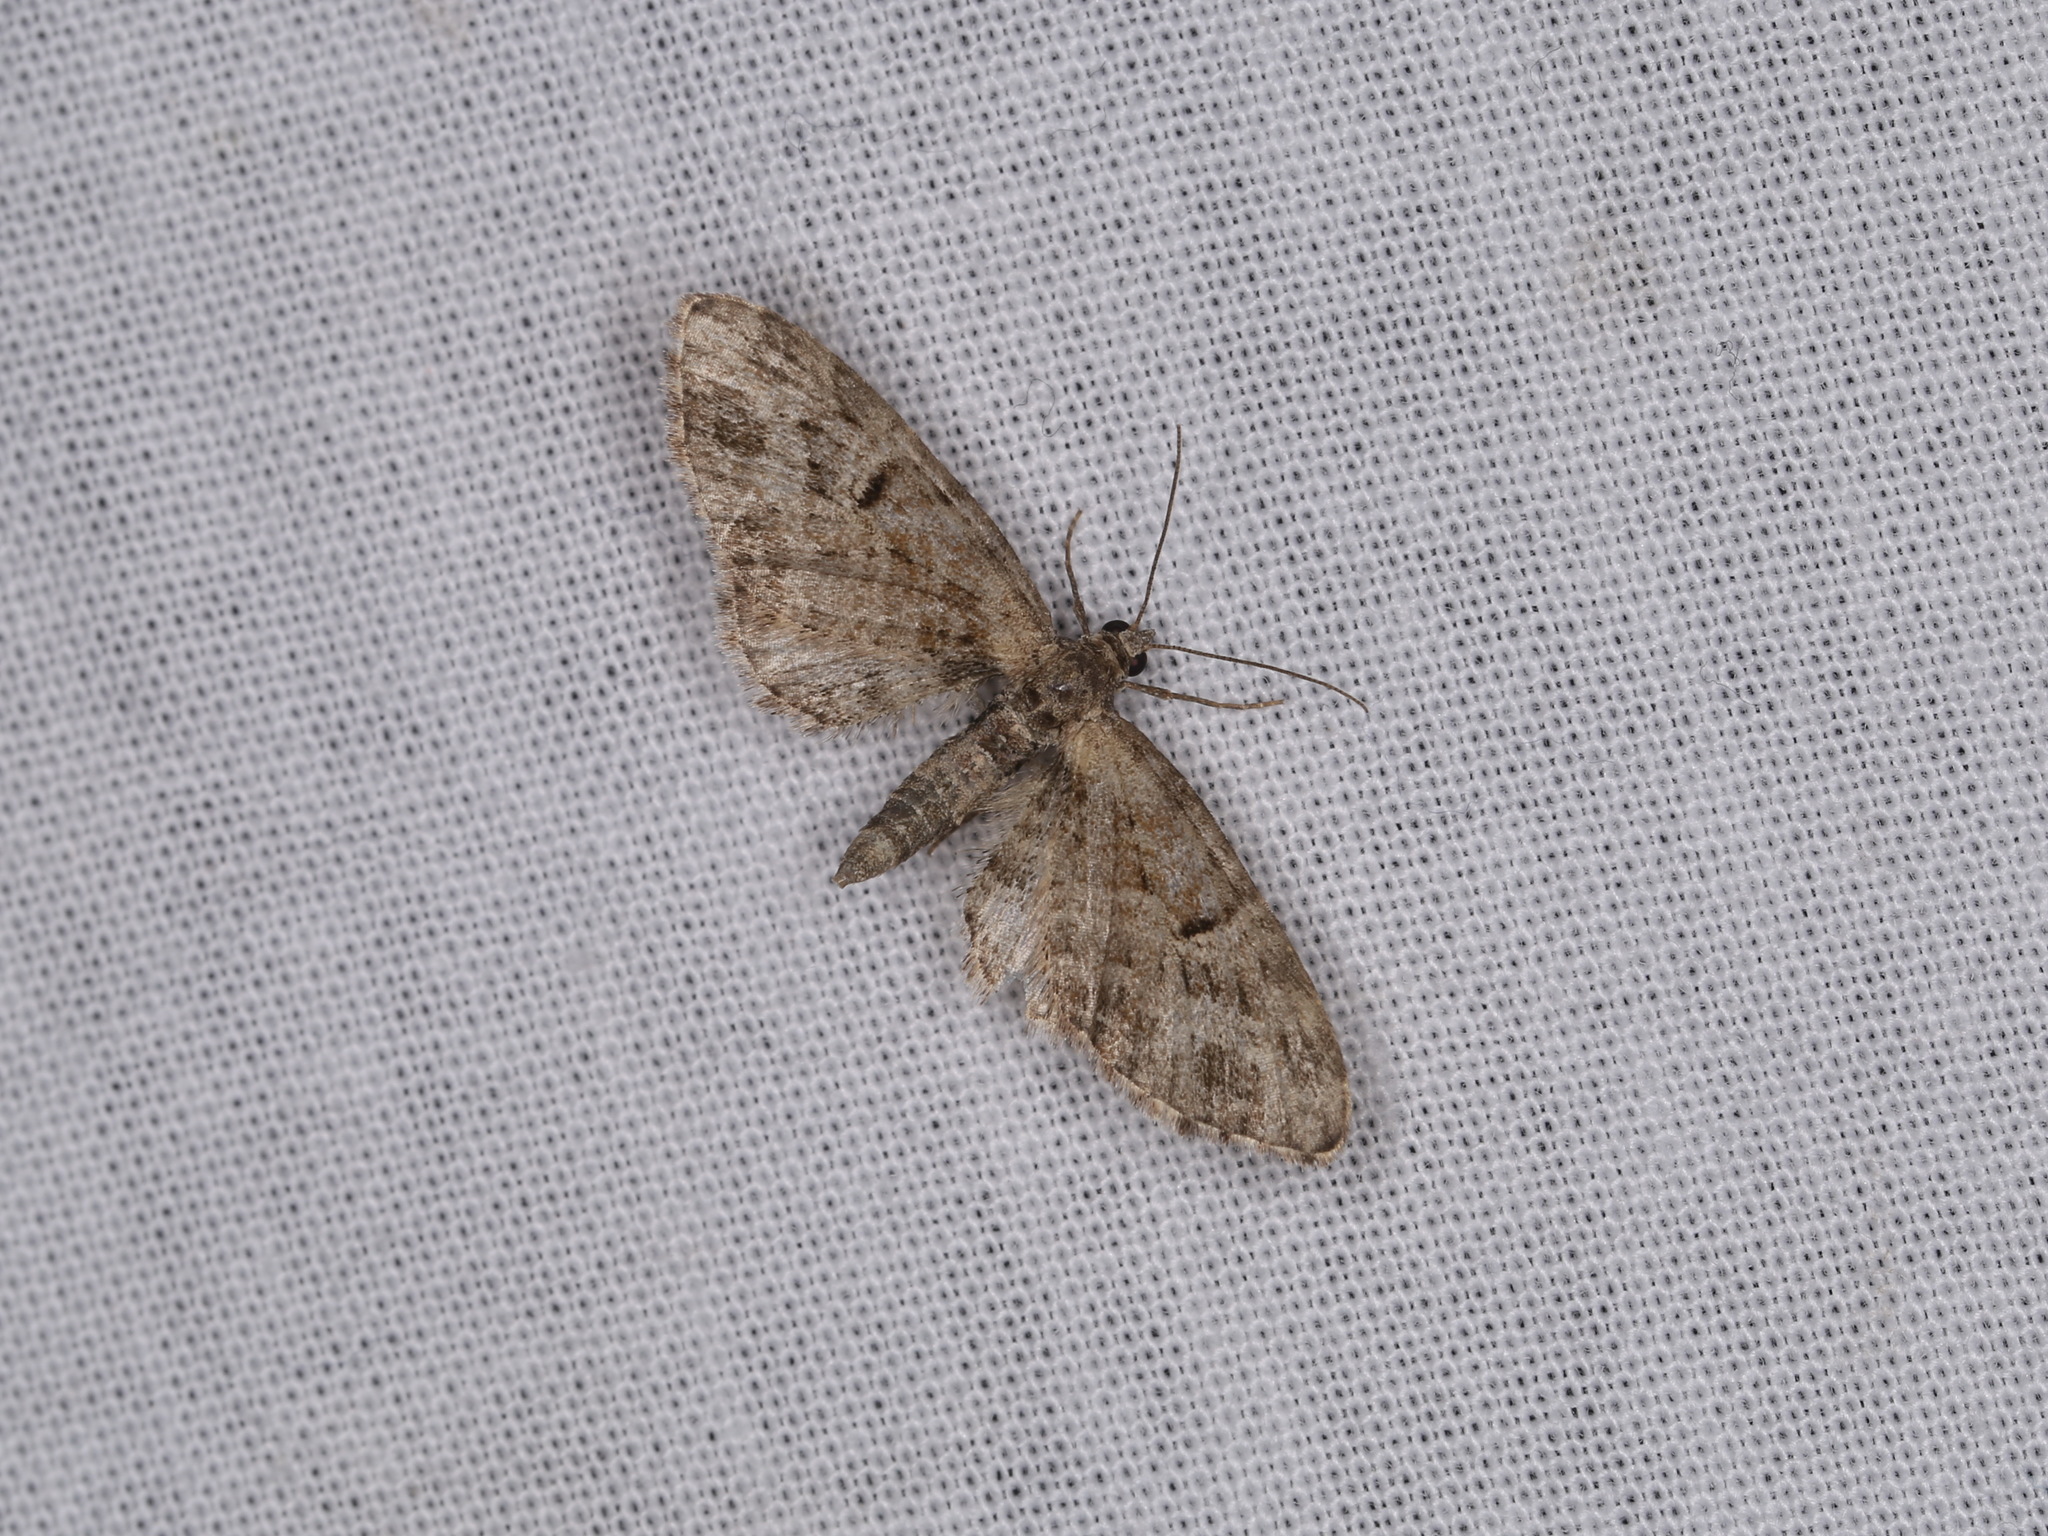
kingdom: Animalia
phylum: Arthropoda
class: Insecta
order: Lepidoptera
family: Geometridae
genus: Eupithecia
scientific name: Eupithecia exiguata
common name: Mottled pug
